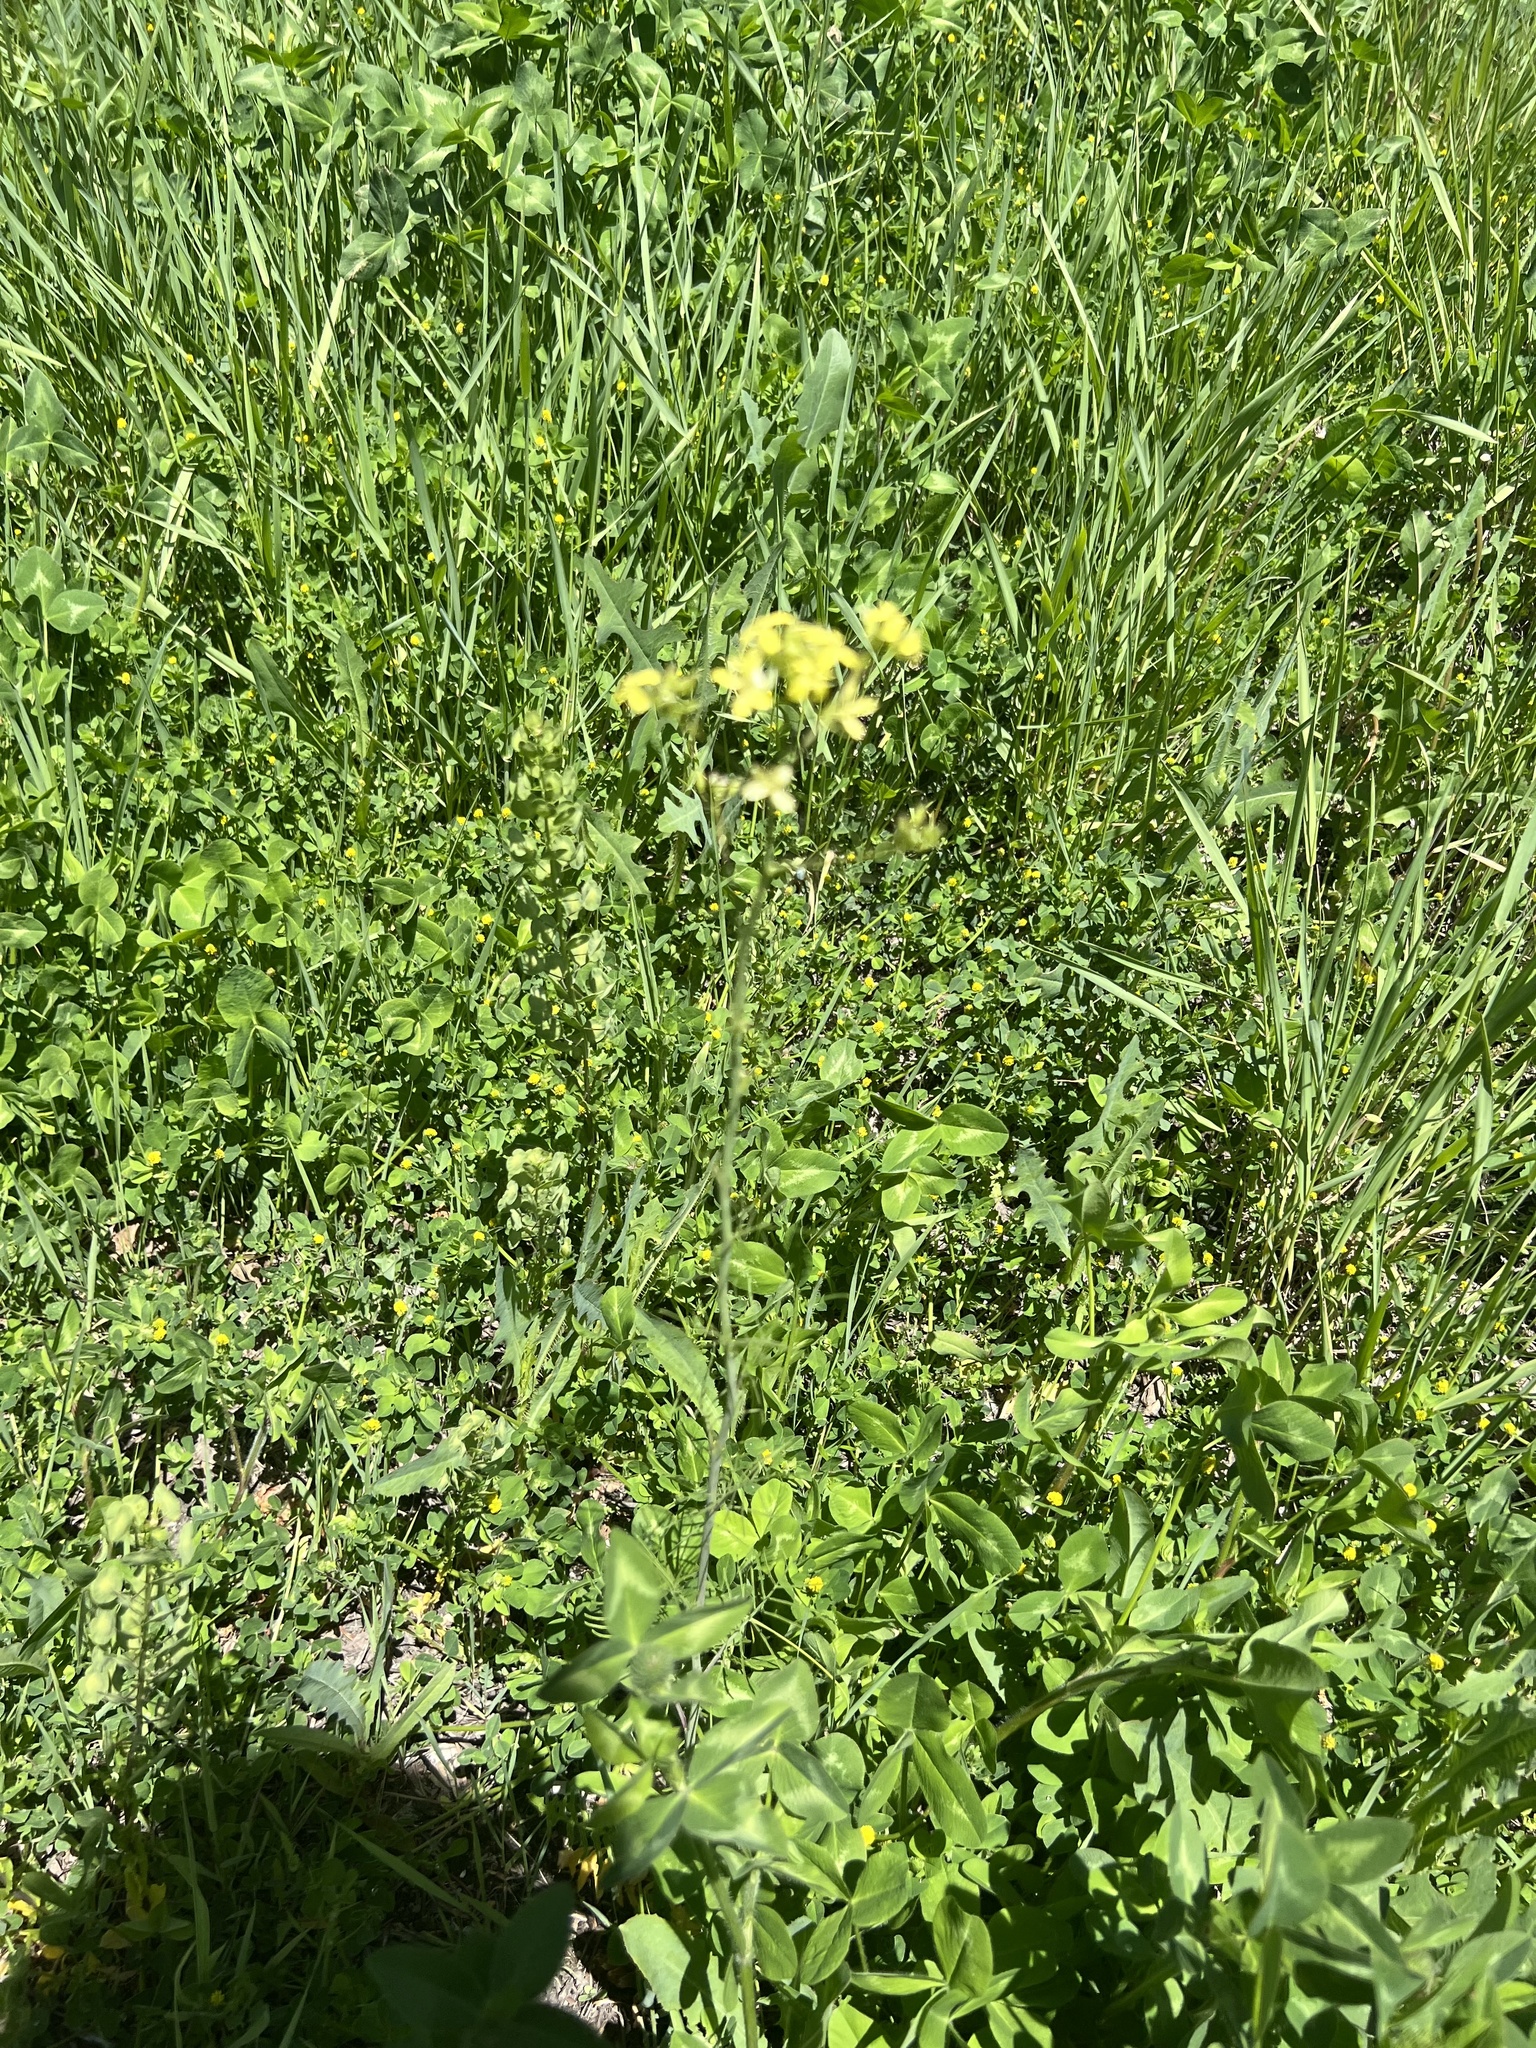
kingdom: Plantae
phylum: Tracheophyta
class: Magnoliopsida
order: Brassicales
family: Brassicaceae
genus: Sisymbrium
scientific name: Sisymbrium altissimum
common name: Tall rocket
